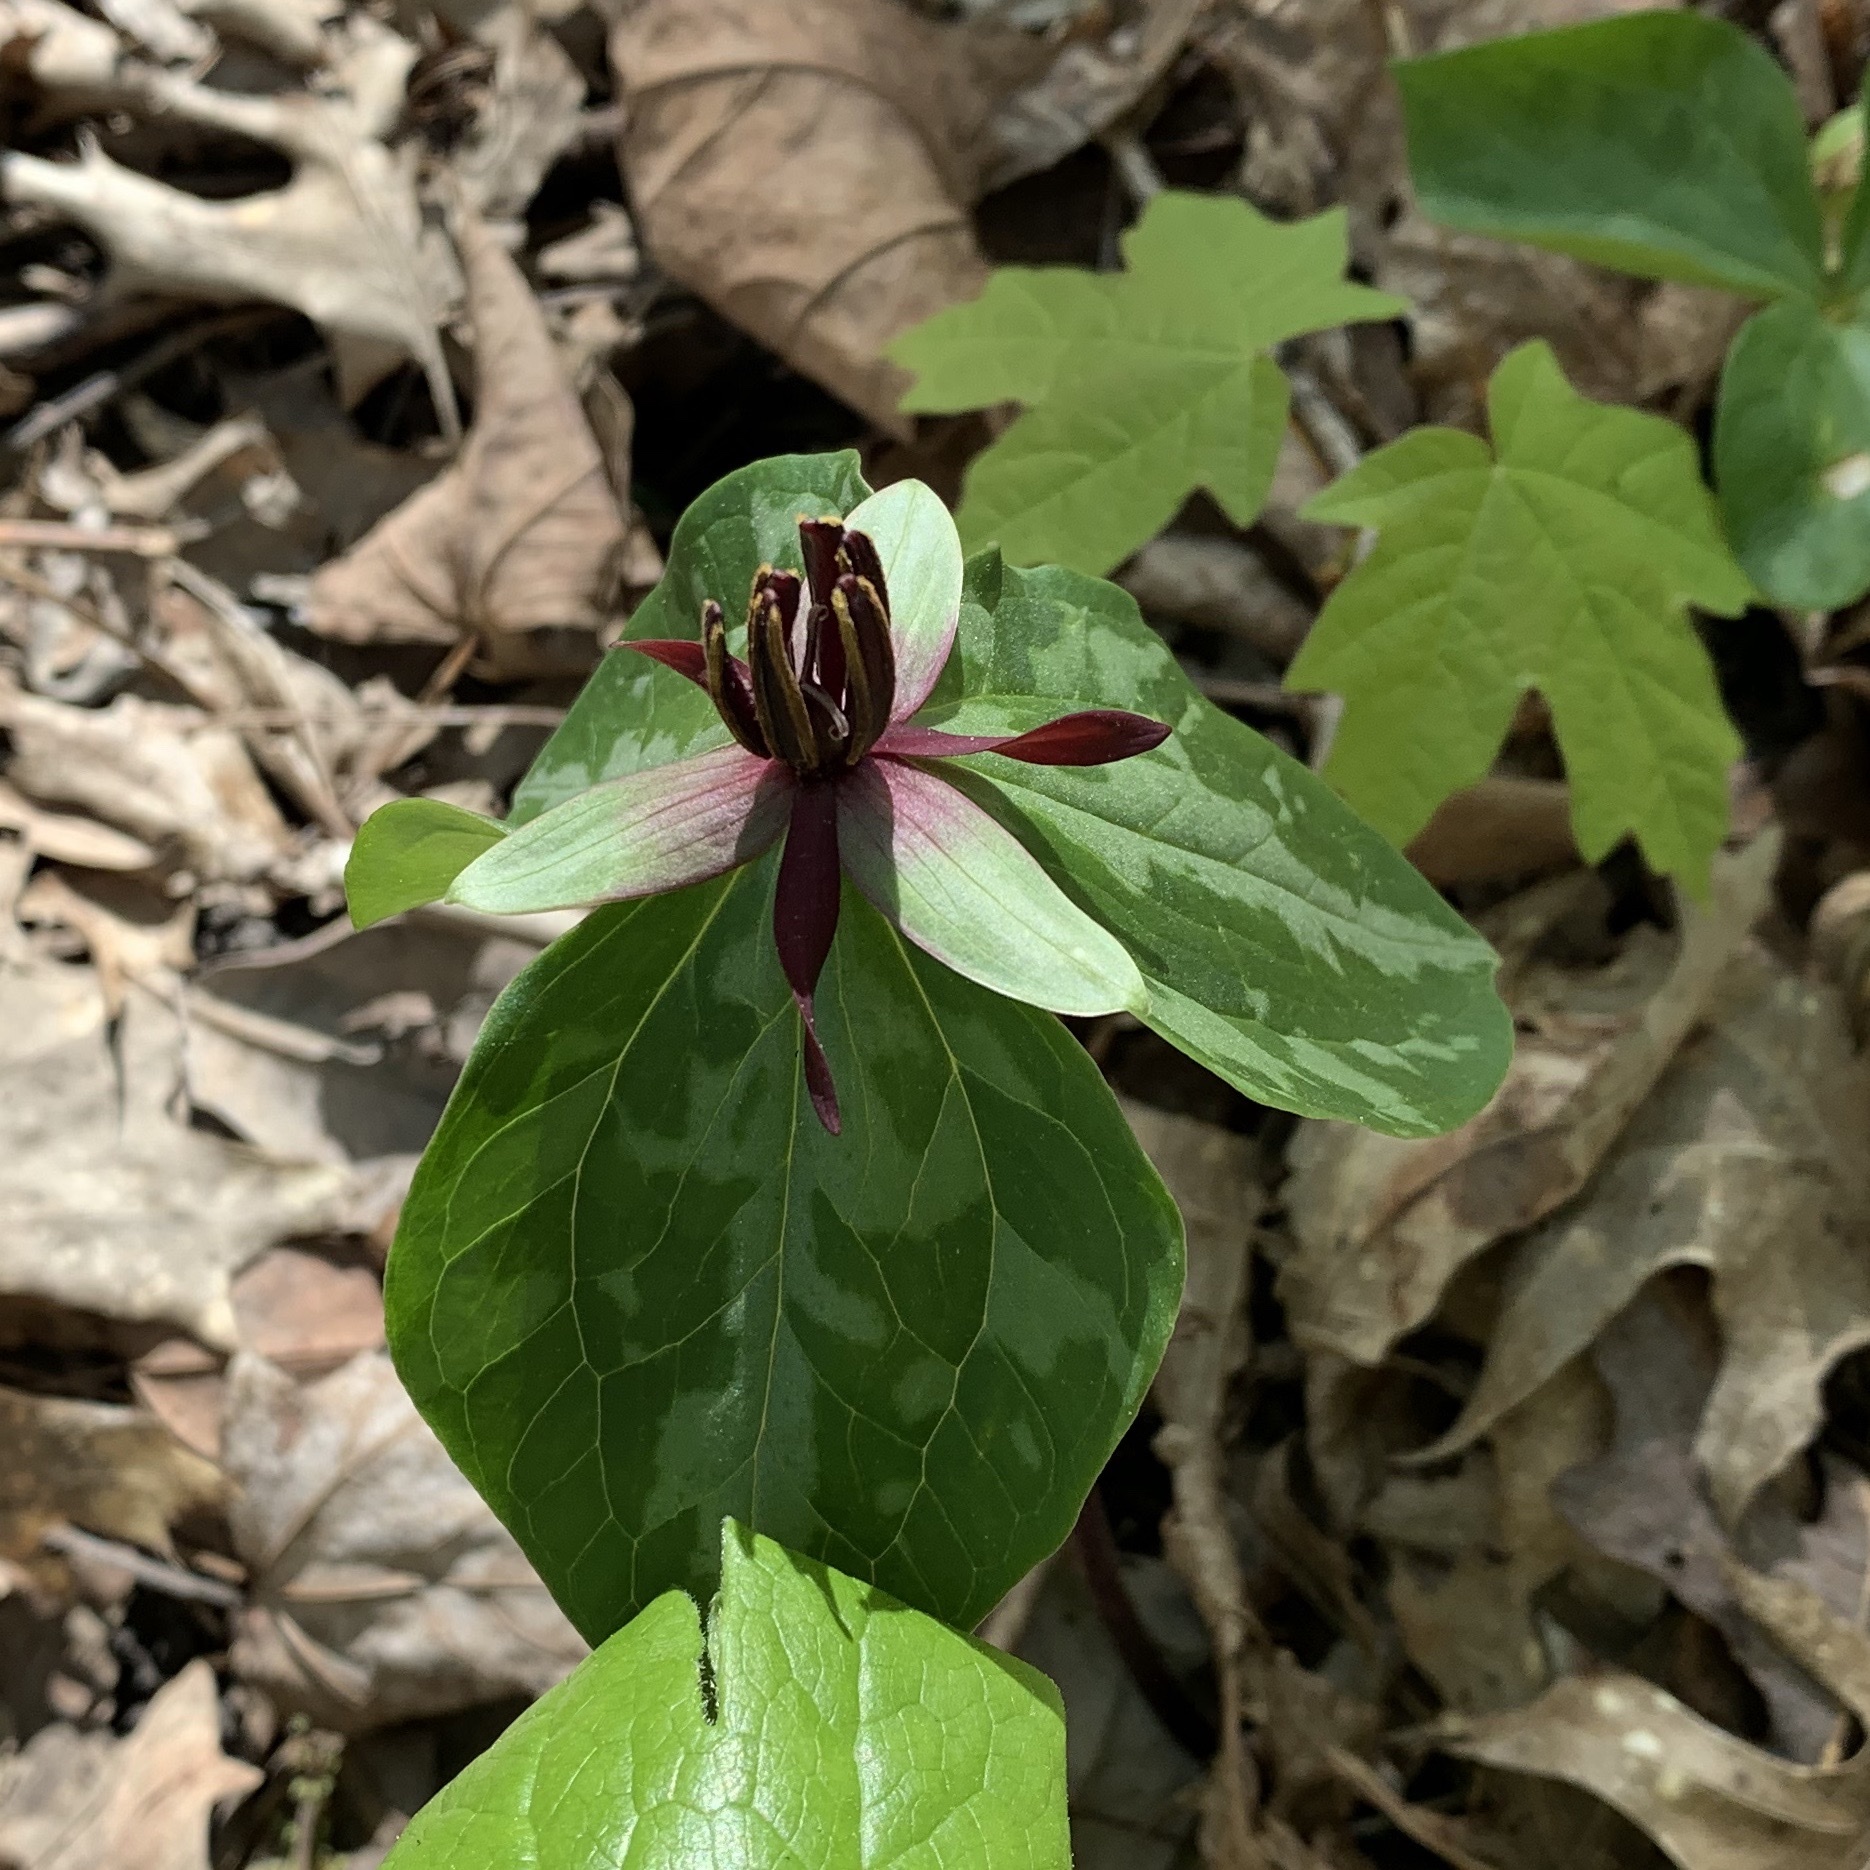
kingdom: Plantae
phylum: Tracheophyta
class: Liliopsida
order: Liliales
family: Melanthiaceae
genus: Trillium
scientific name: Trillium stamineum
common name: Blue ridge wakerobin
